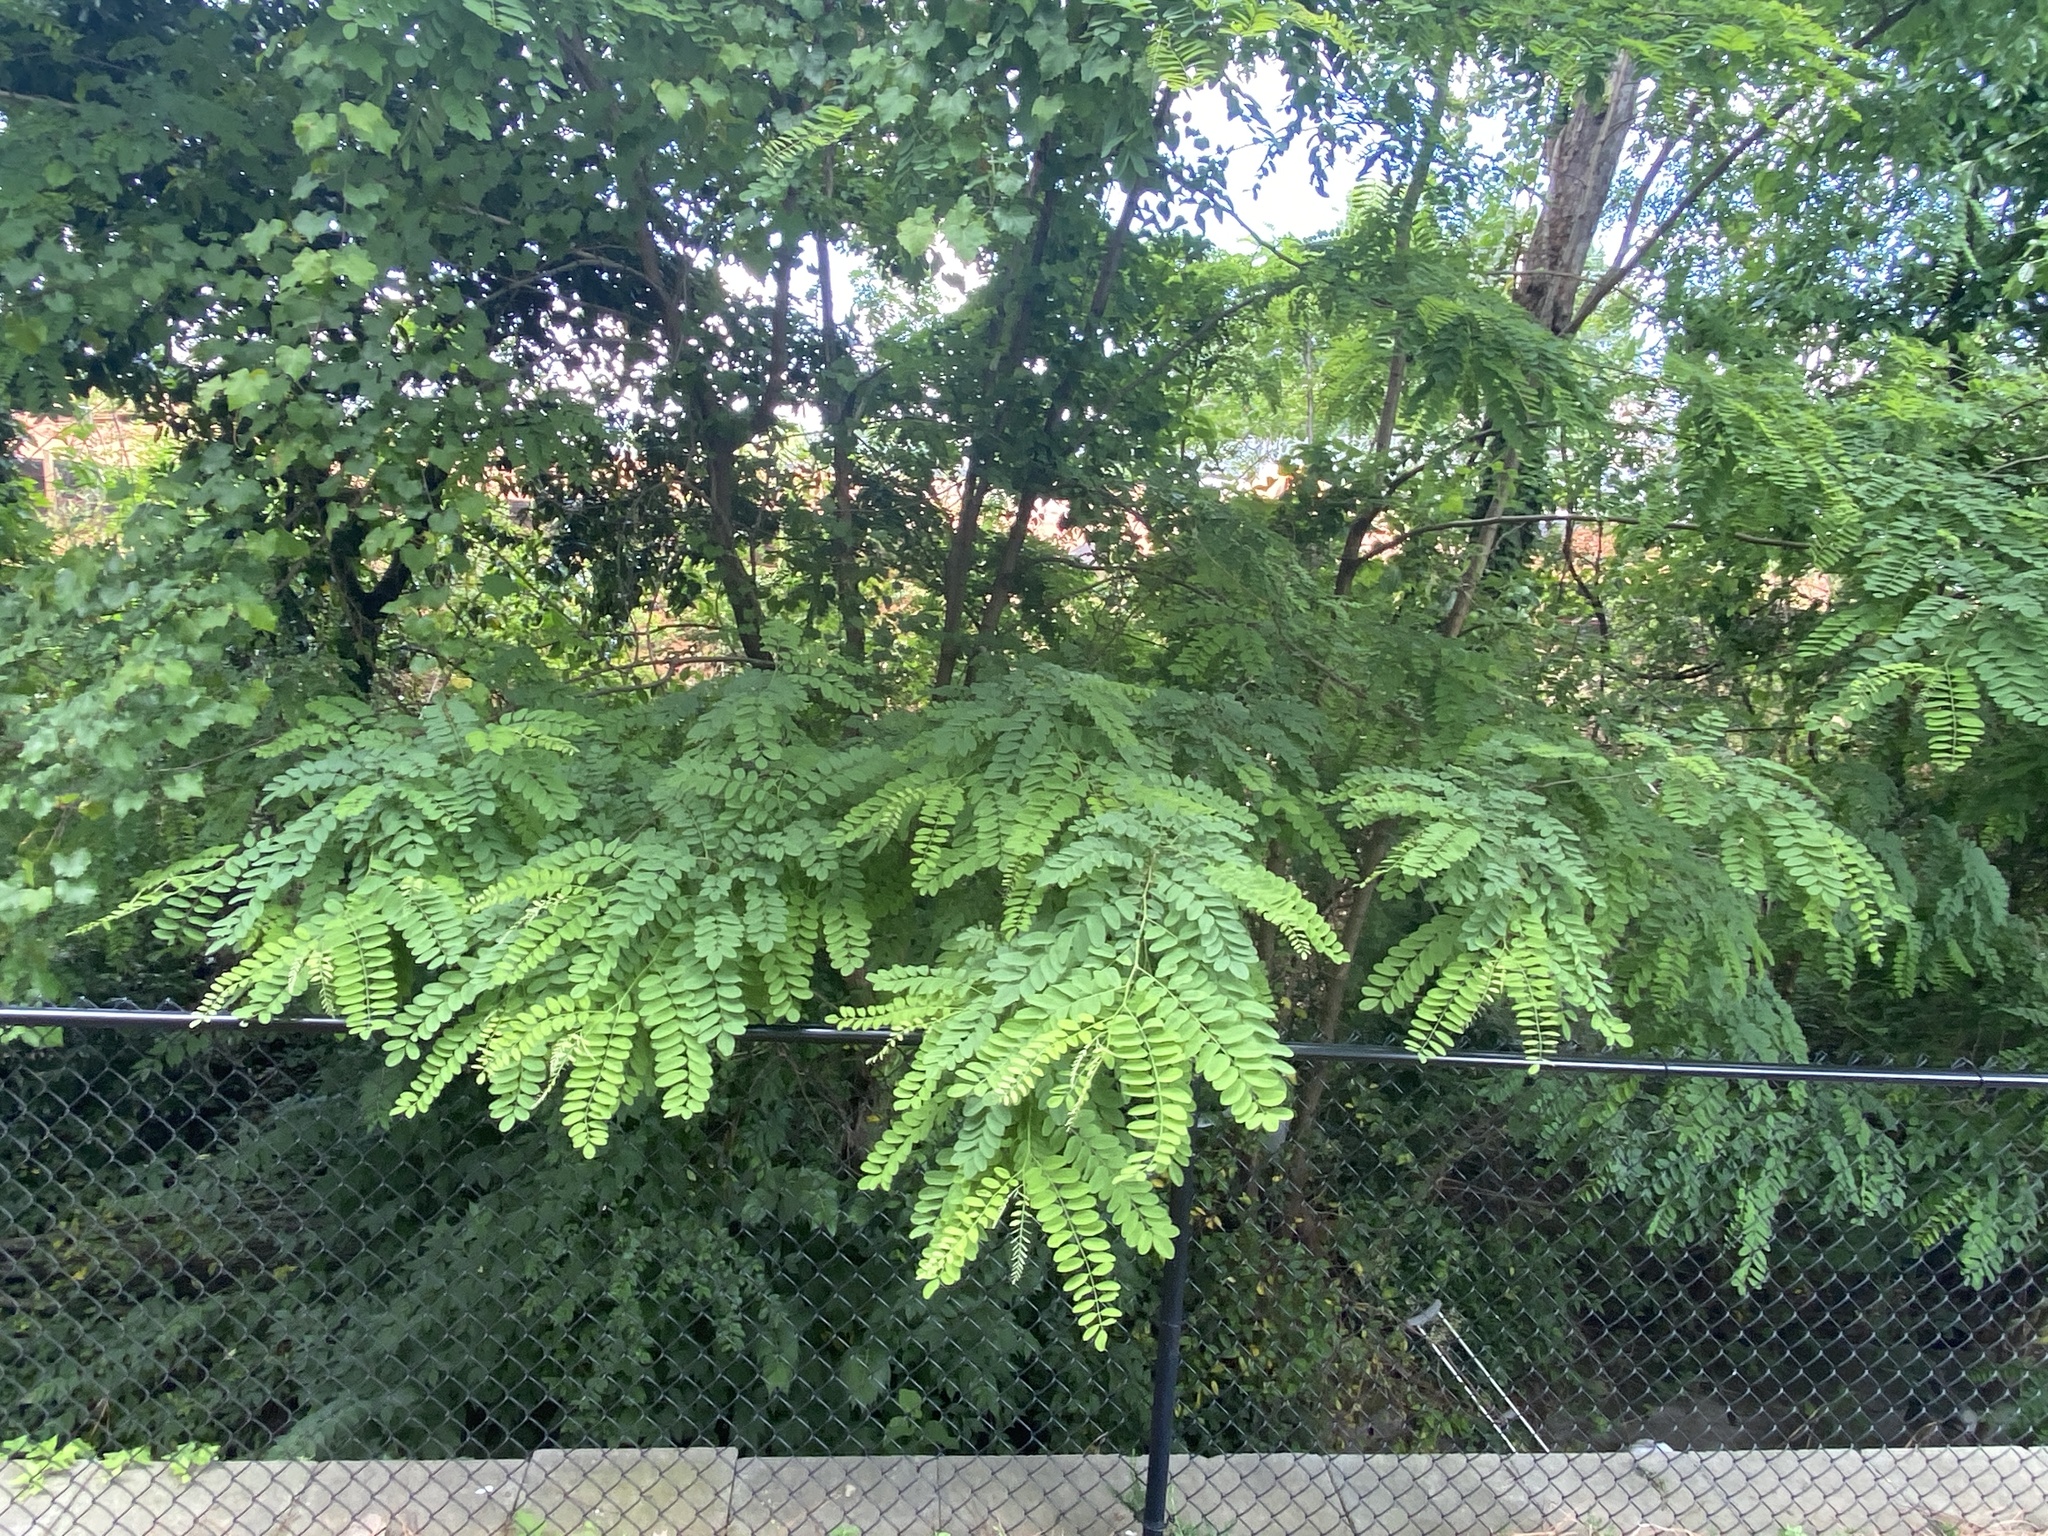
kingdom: Plantae
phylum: Tracheophyta
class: Magnoliopsida
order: Fabales
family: Fabaceae
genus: Robinia
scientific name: Robinia pseudoacacia
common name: Black locust
